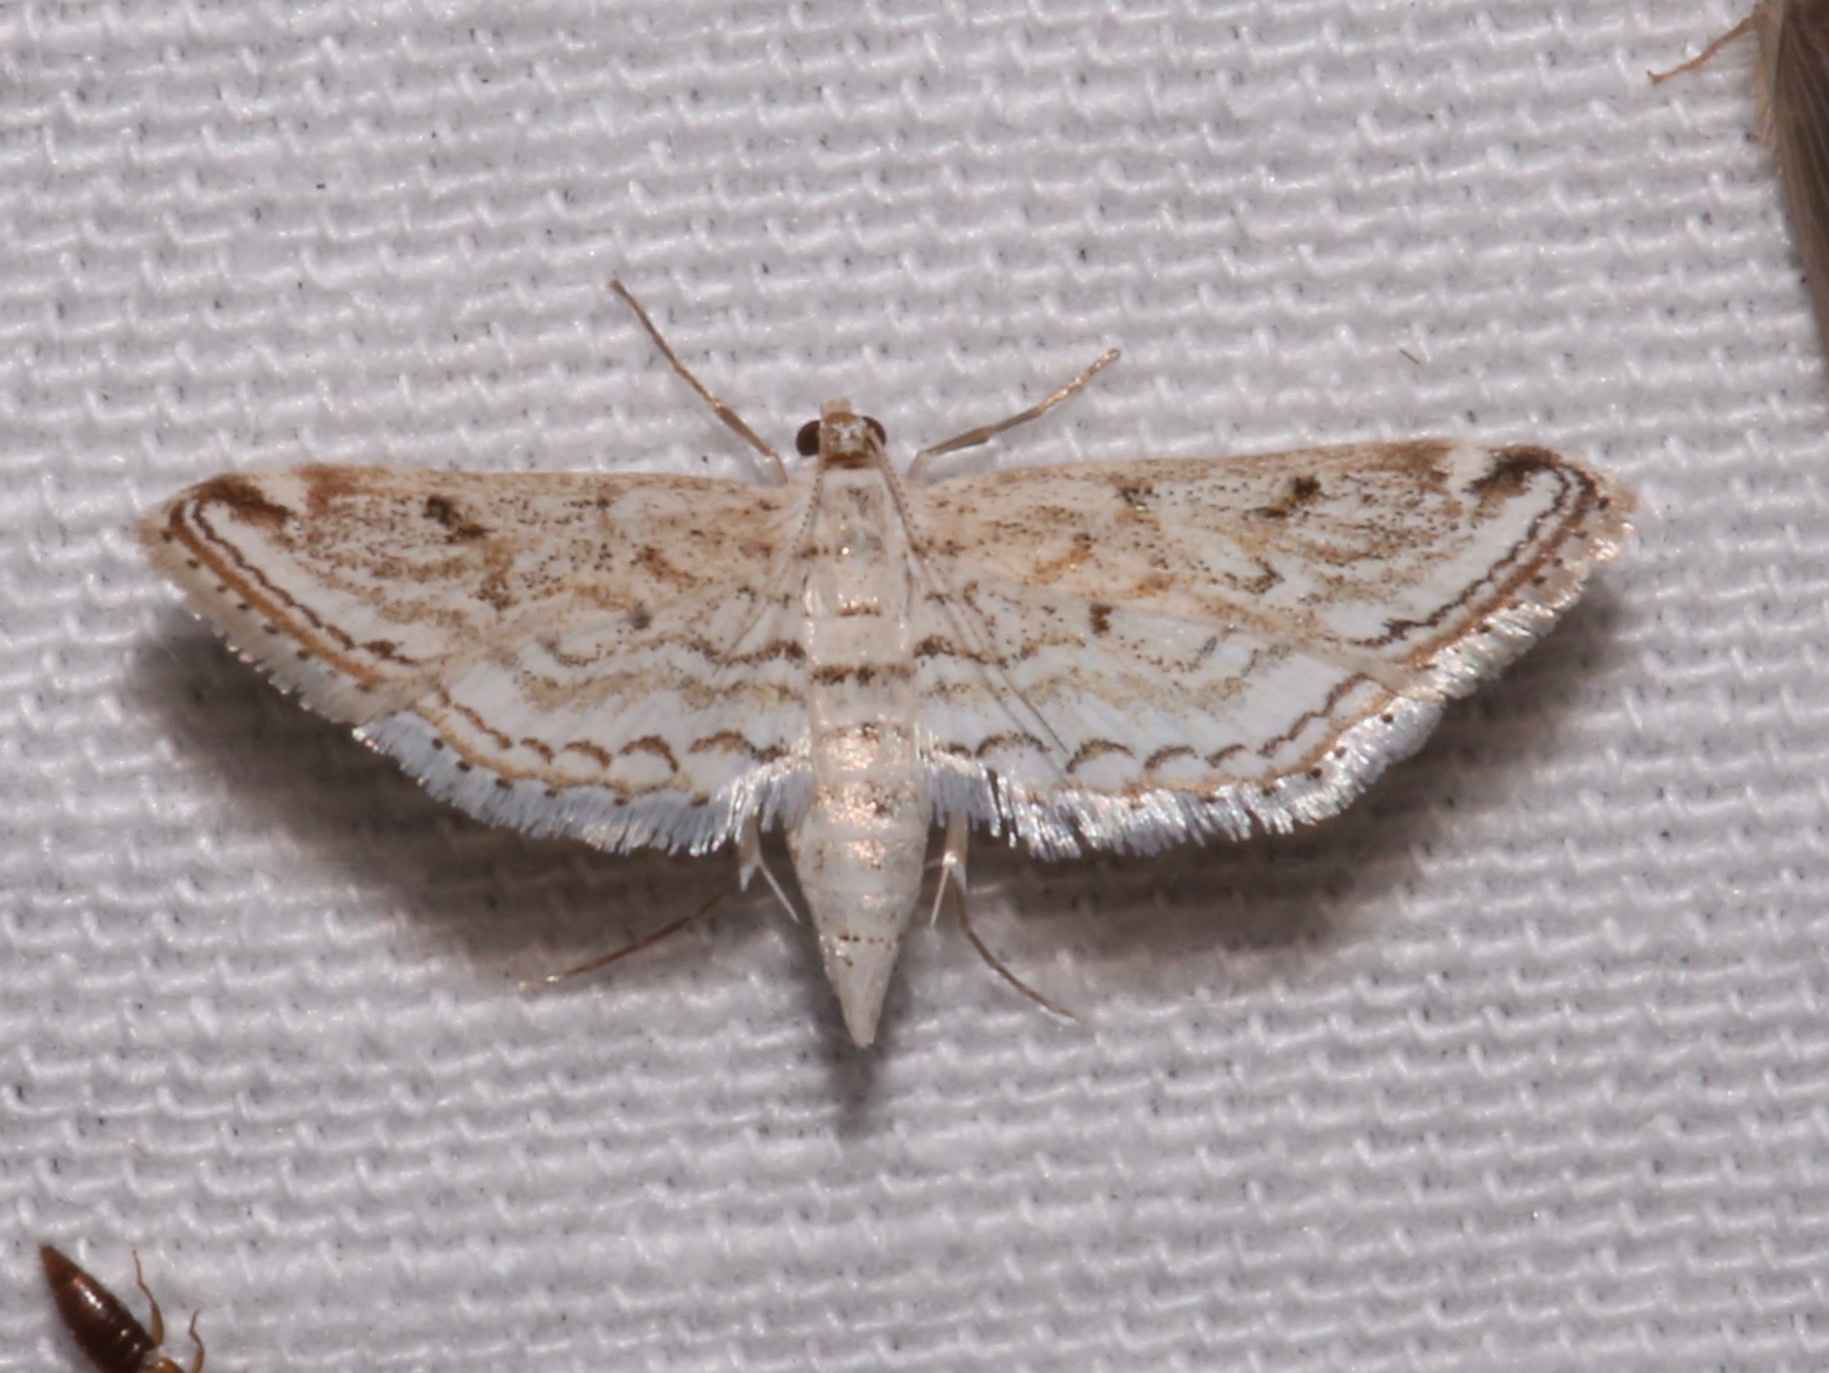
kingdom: Animalia
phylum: Arthropoda
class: Insecta
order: Lepidoptera
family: Crambidae
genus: Parapoynx
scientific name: Parapoynx allionealis
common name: Bladderwort casemaker
